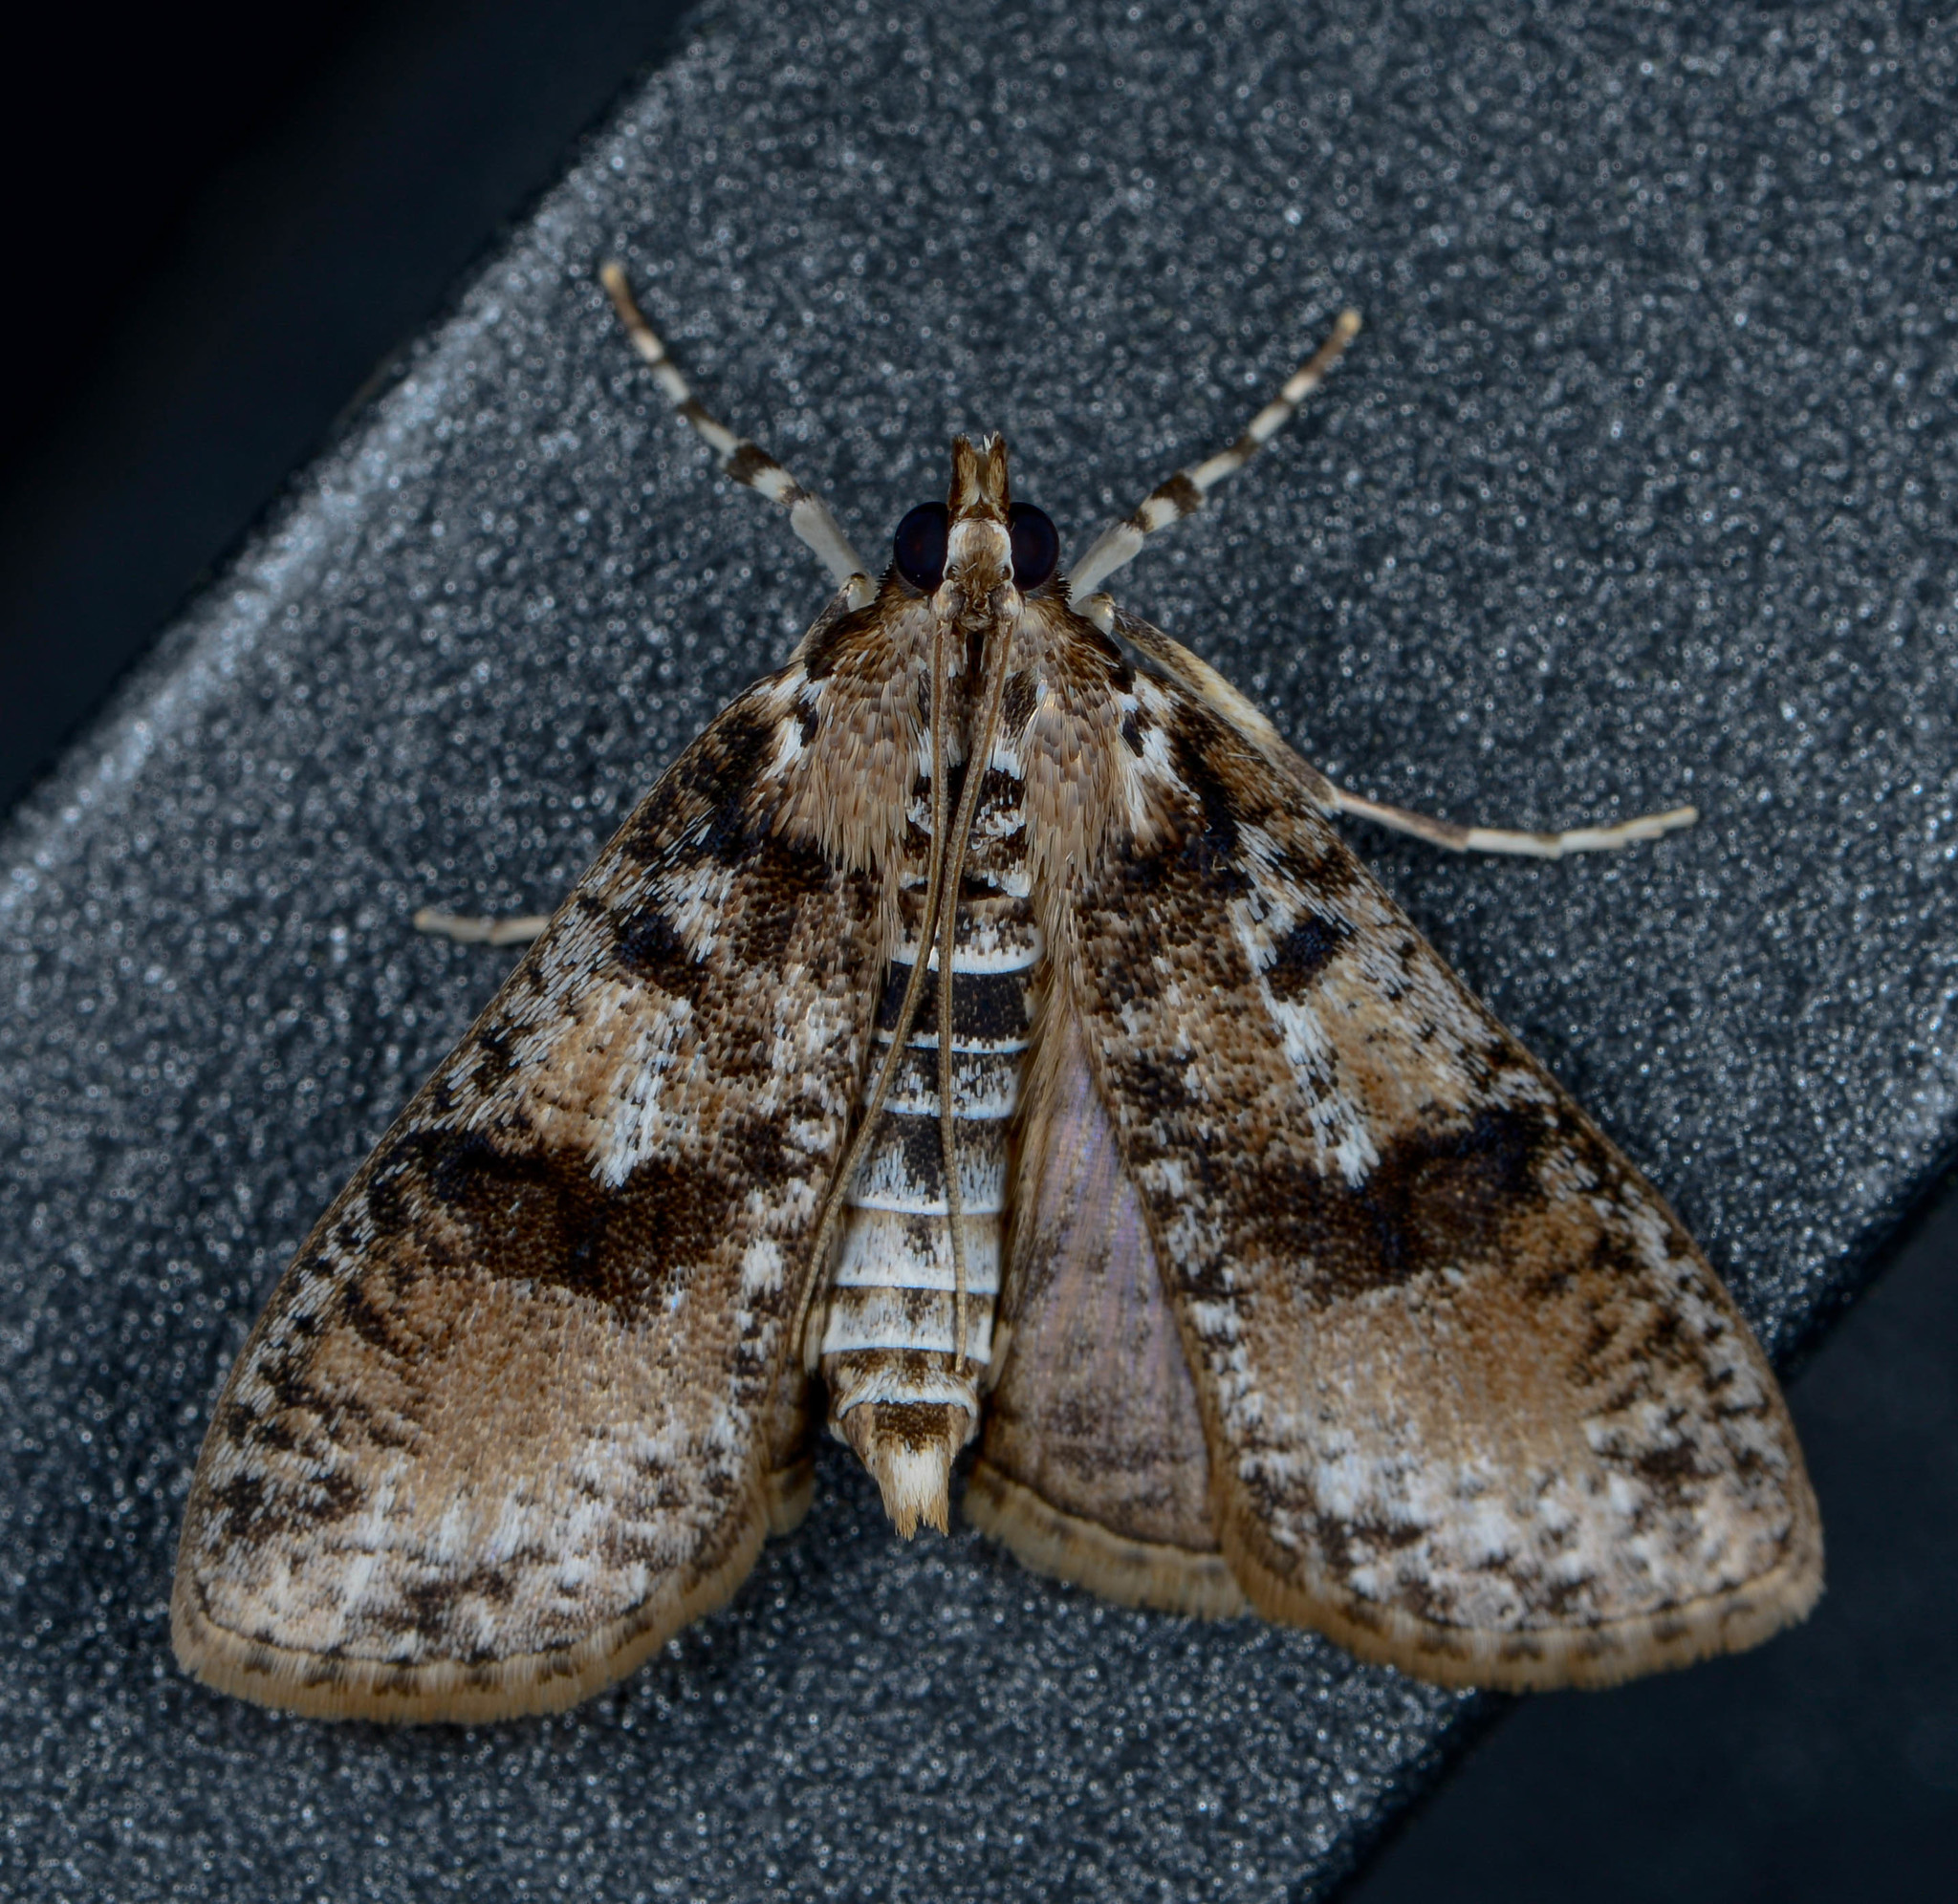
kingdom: Animalia
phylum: Arthropoda
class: Insecta
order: Lepidoptera
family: Crambidae
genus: Palpita
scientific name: Palpita magniferalis
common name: Splendid palpita moth
